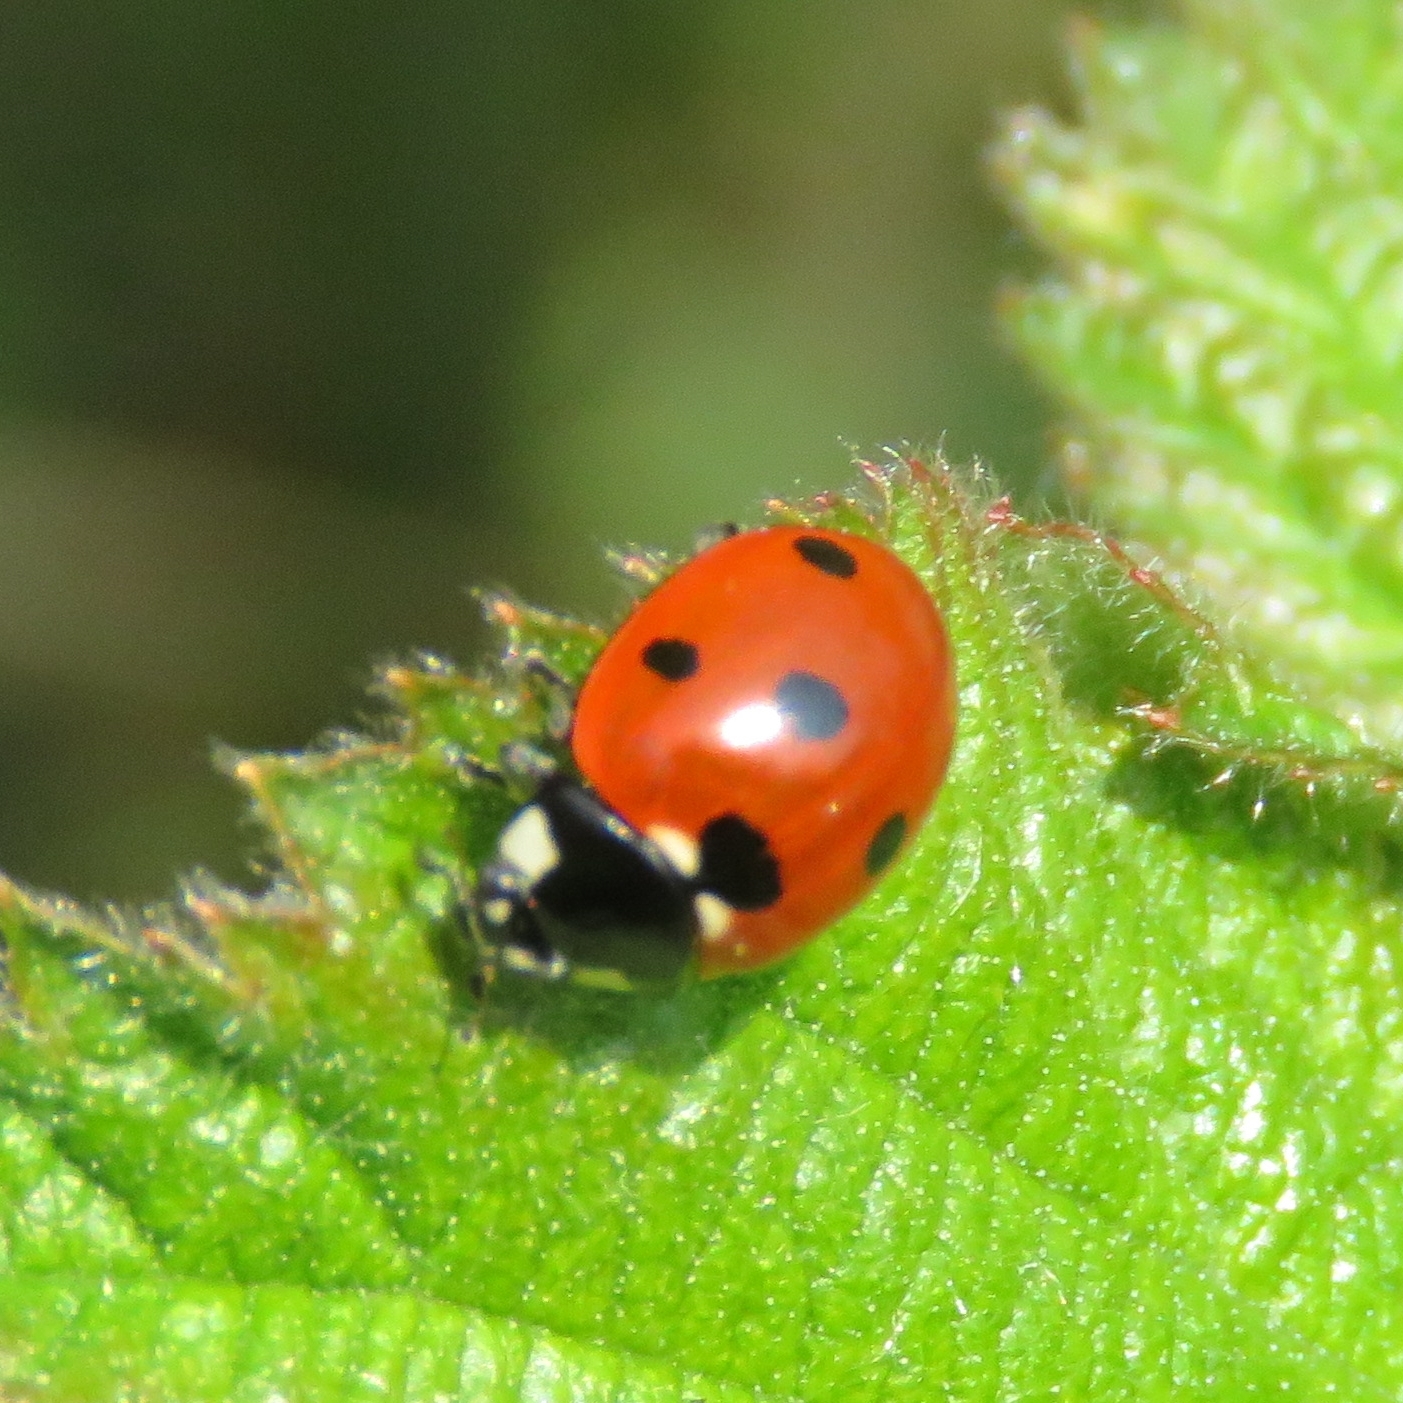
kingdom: Animalia
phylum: Arthropoda
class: Insecta
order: Coleoptera
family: Coccinellidae
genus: Coccinella
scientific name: Coccinella septempunctata
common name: Sevenspotted lady beetle
